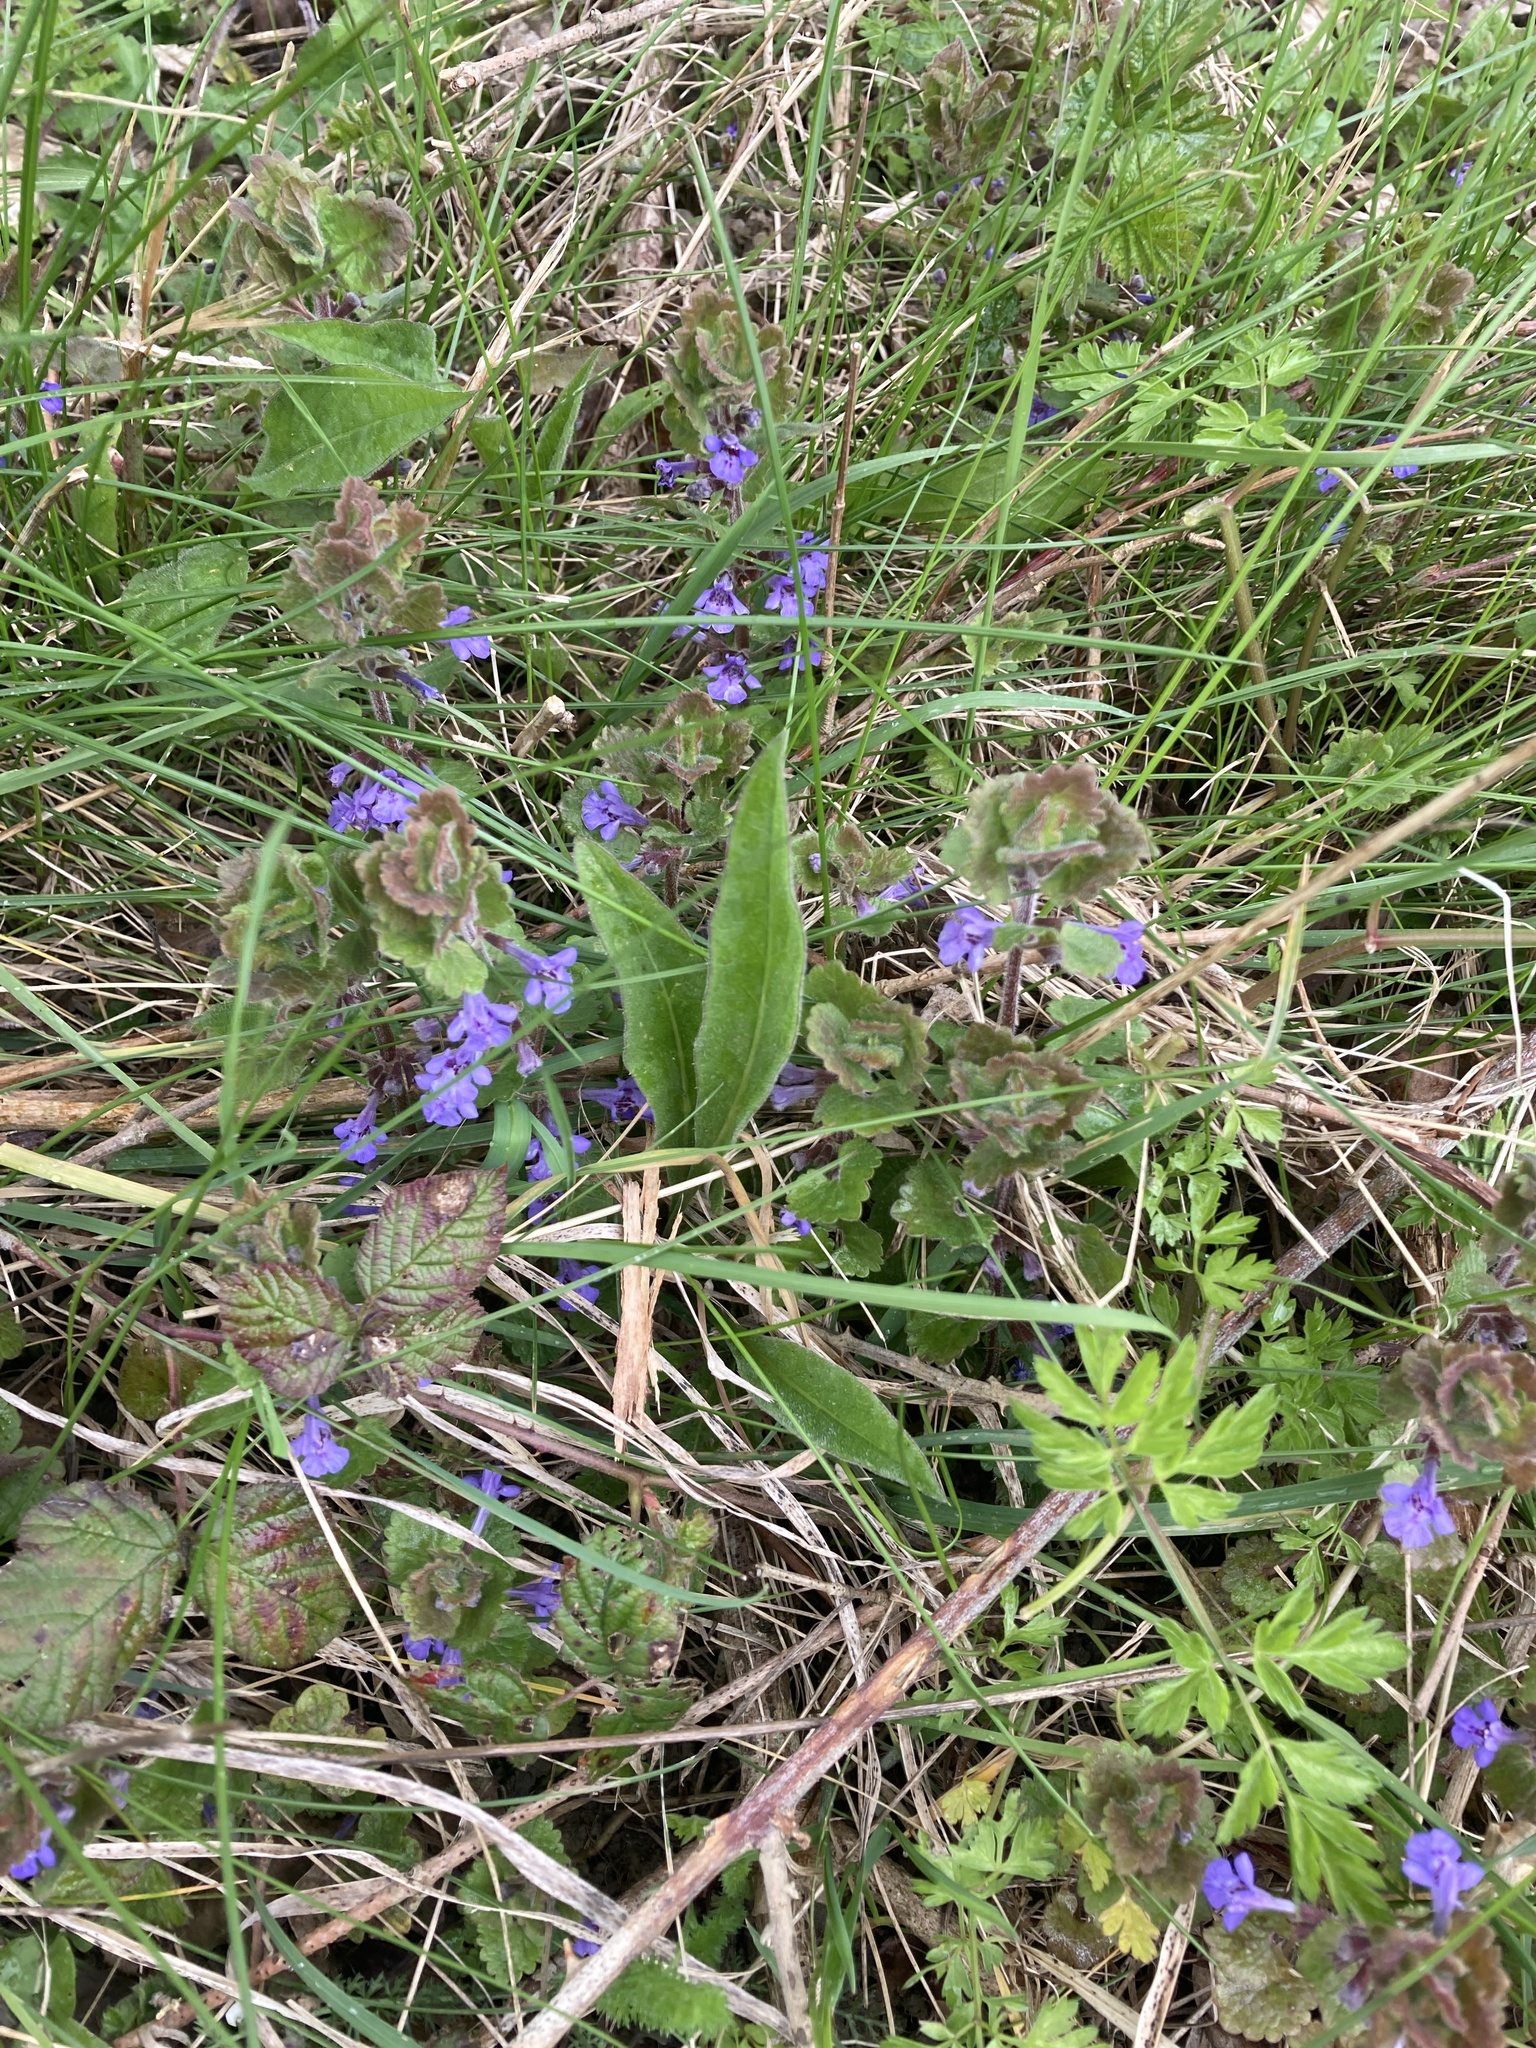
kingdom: Plantae
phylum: Tracheophyta
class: Magnoliopsida
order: Lamiales
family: Lamiaceae
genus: Glechoma
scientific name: Glechoma hederacea
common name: Ground ivy
